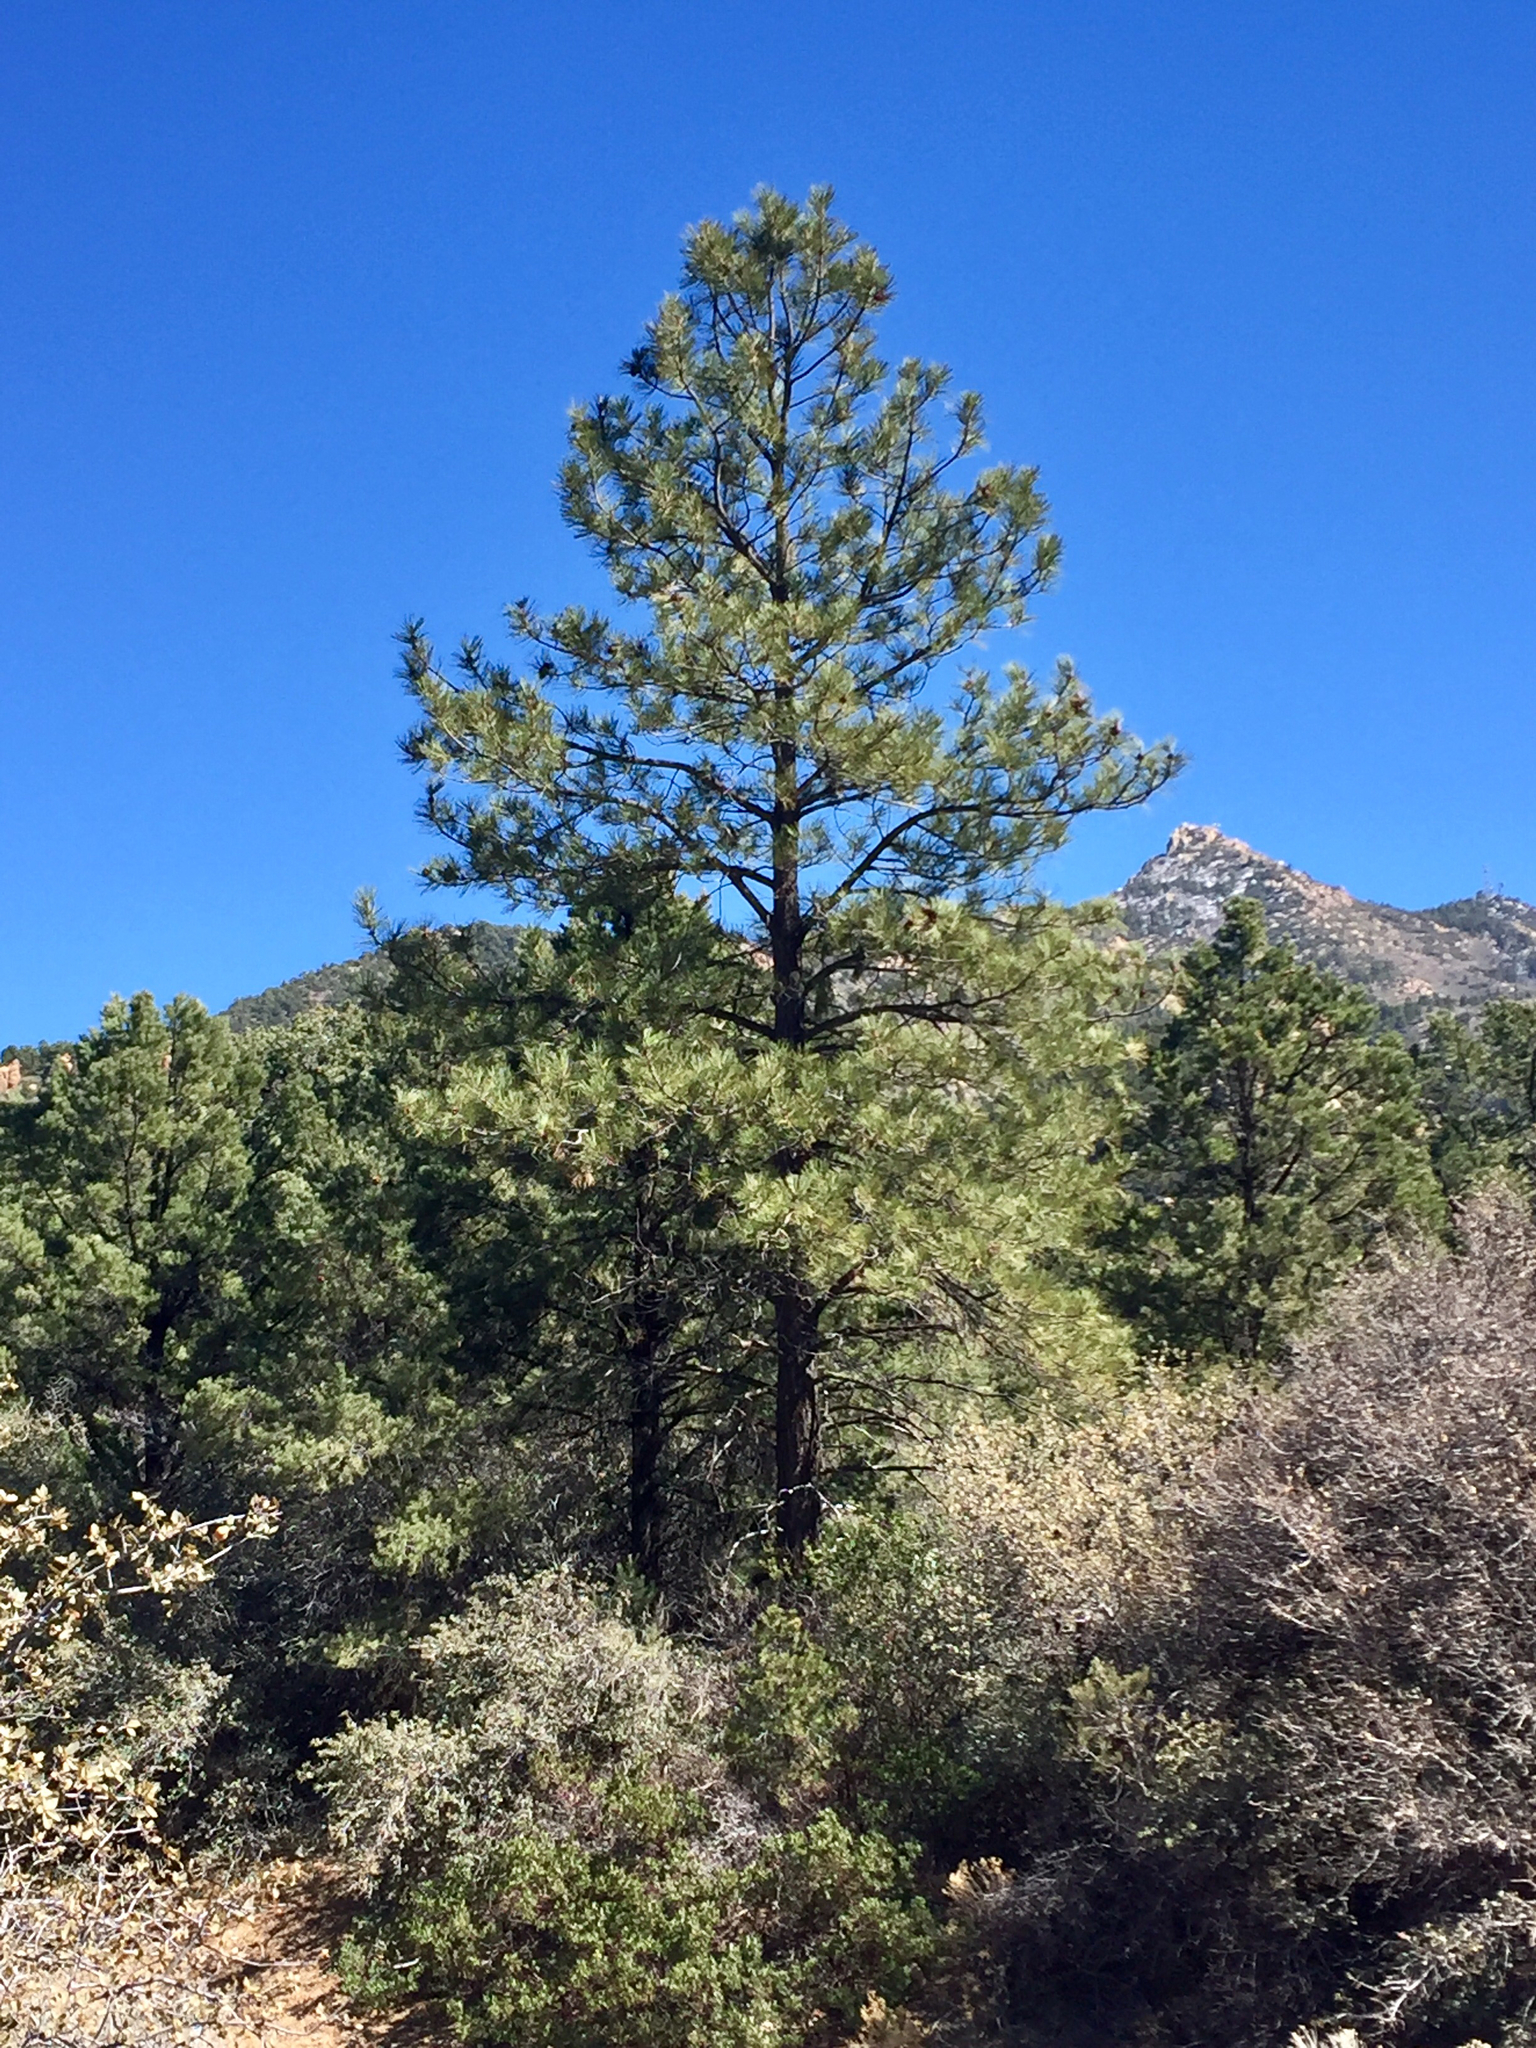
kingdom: Plantae
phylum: Tracheophyta
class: Pinopsida
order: Pinales
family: Pinaceae
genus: Pinus
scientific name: Pinus ponderosa
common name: Western yellow-pine
